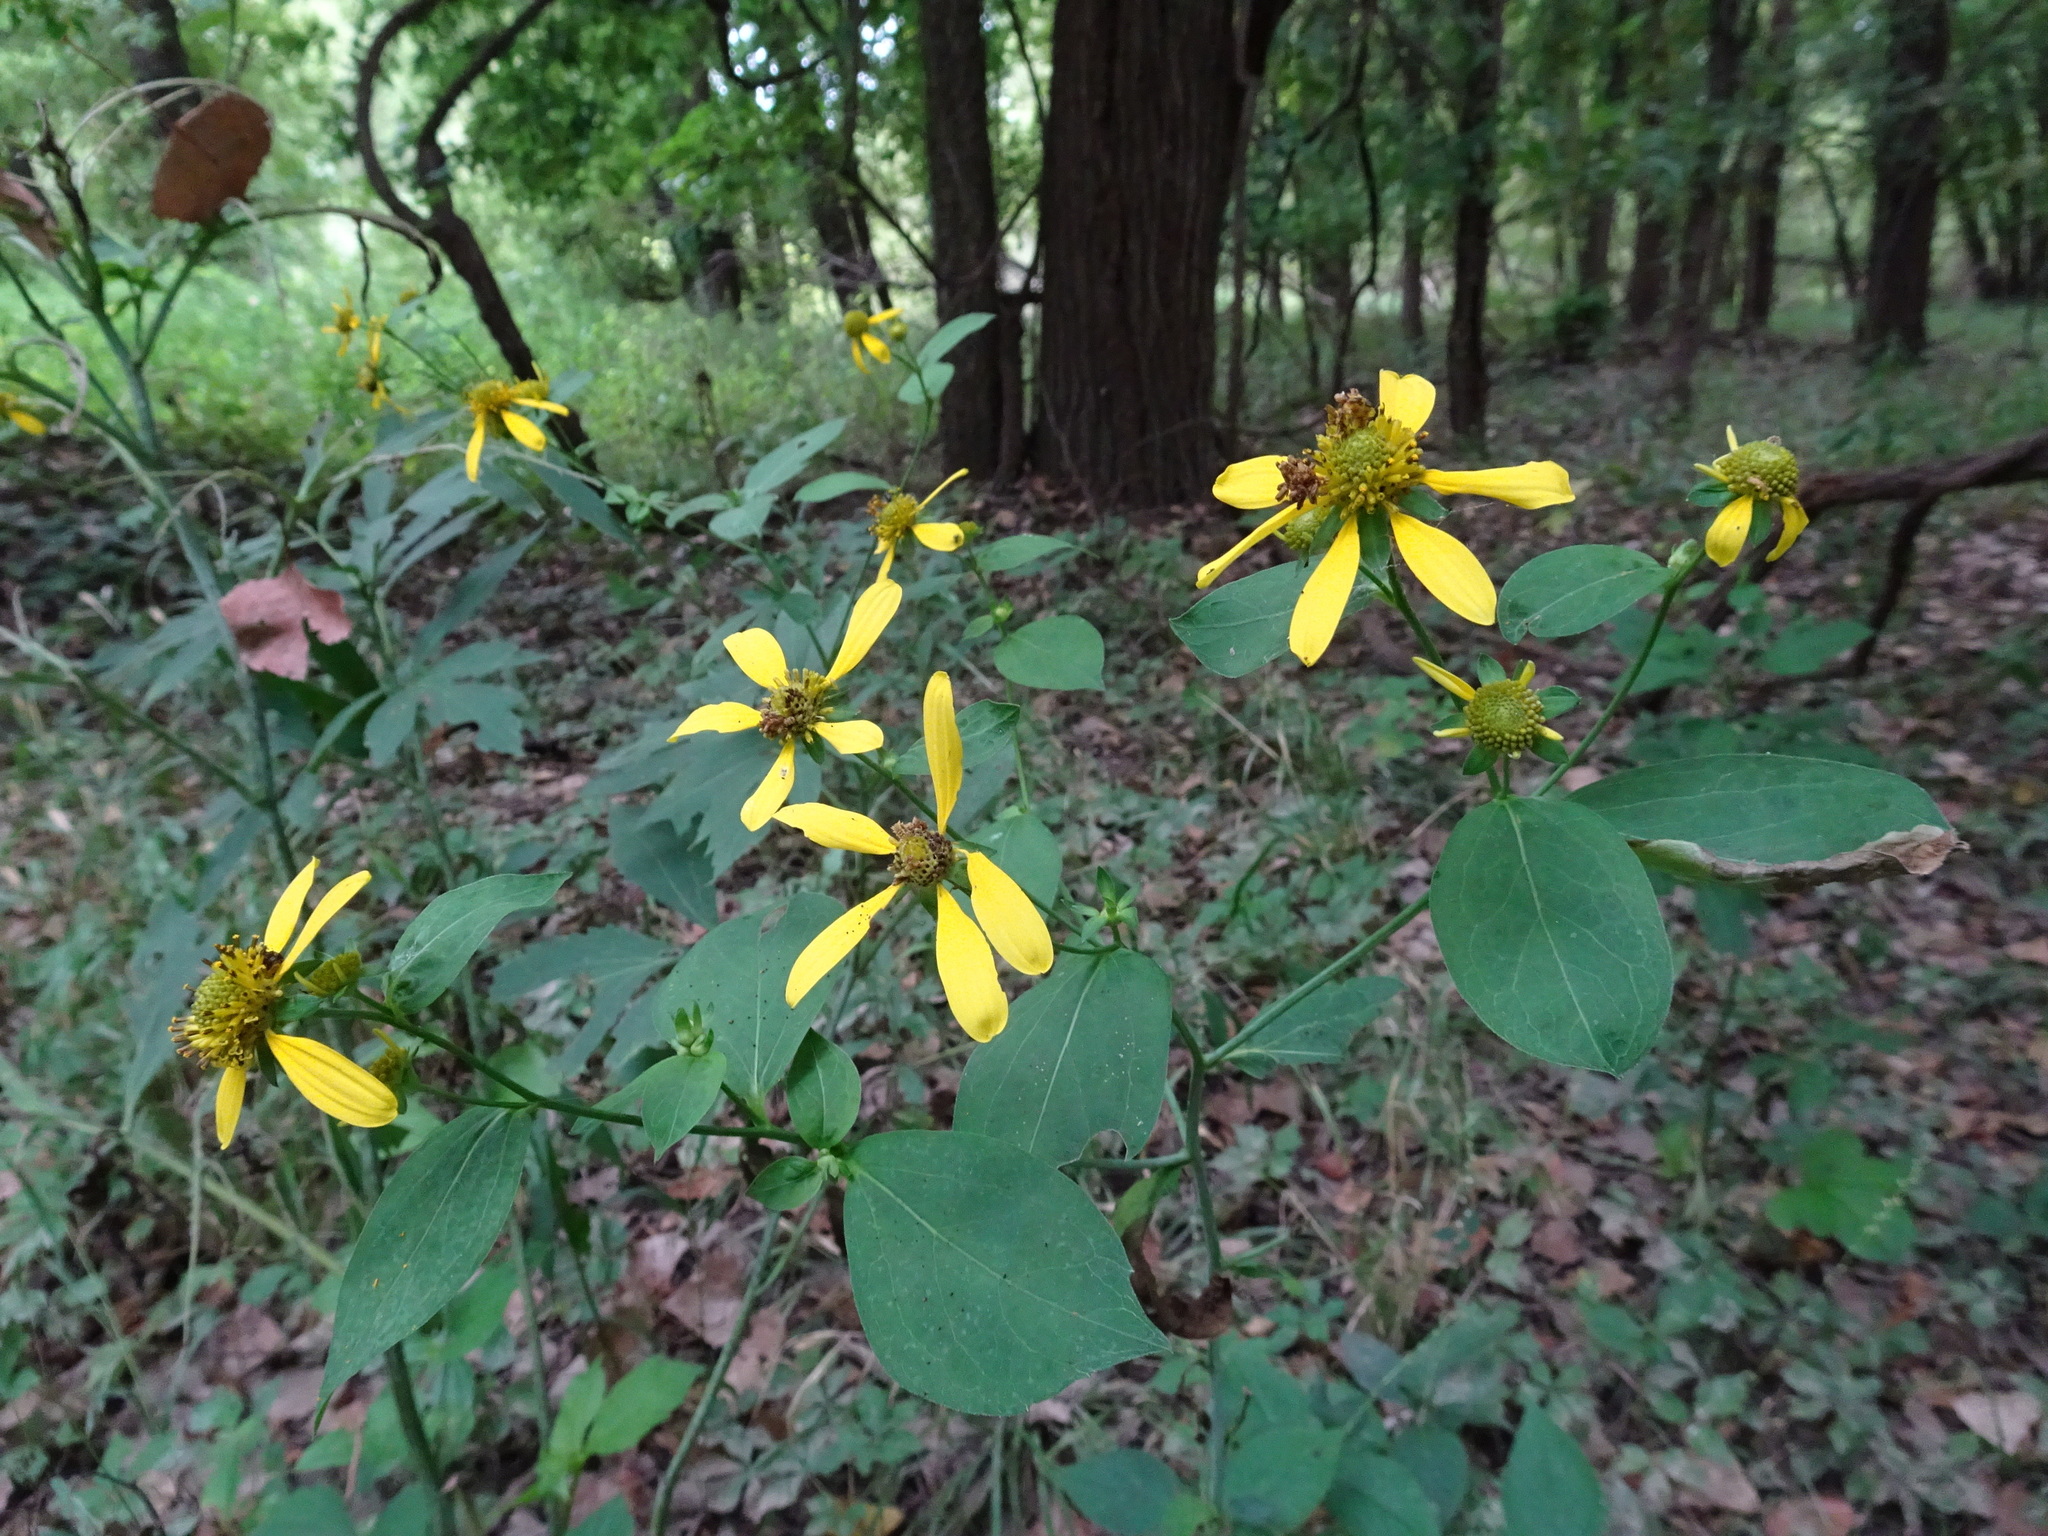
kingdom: Plantae
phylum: Tracheophyta
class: Magnoliopsida
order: Asterales
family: Asteraceae
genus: Rudbeckia
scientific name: Rudbeckia laciniata
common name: Coneflower
